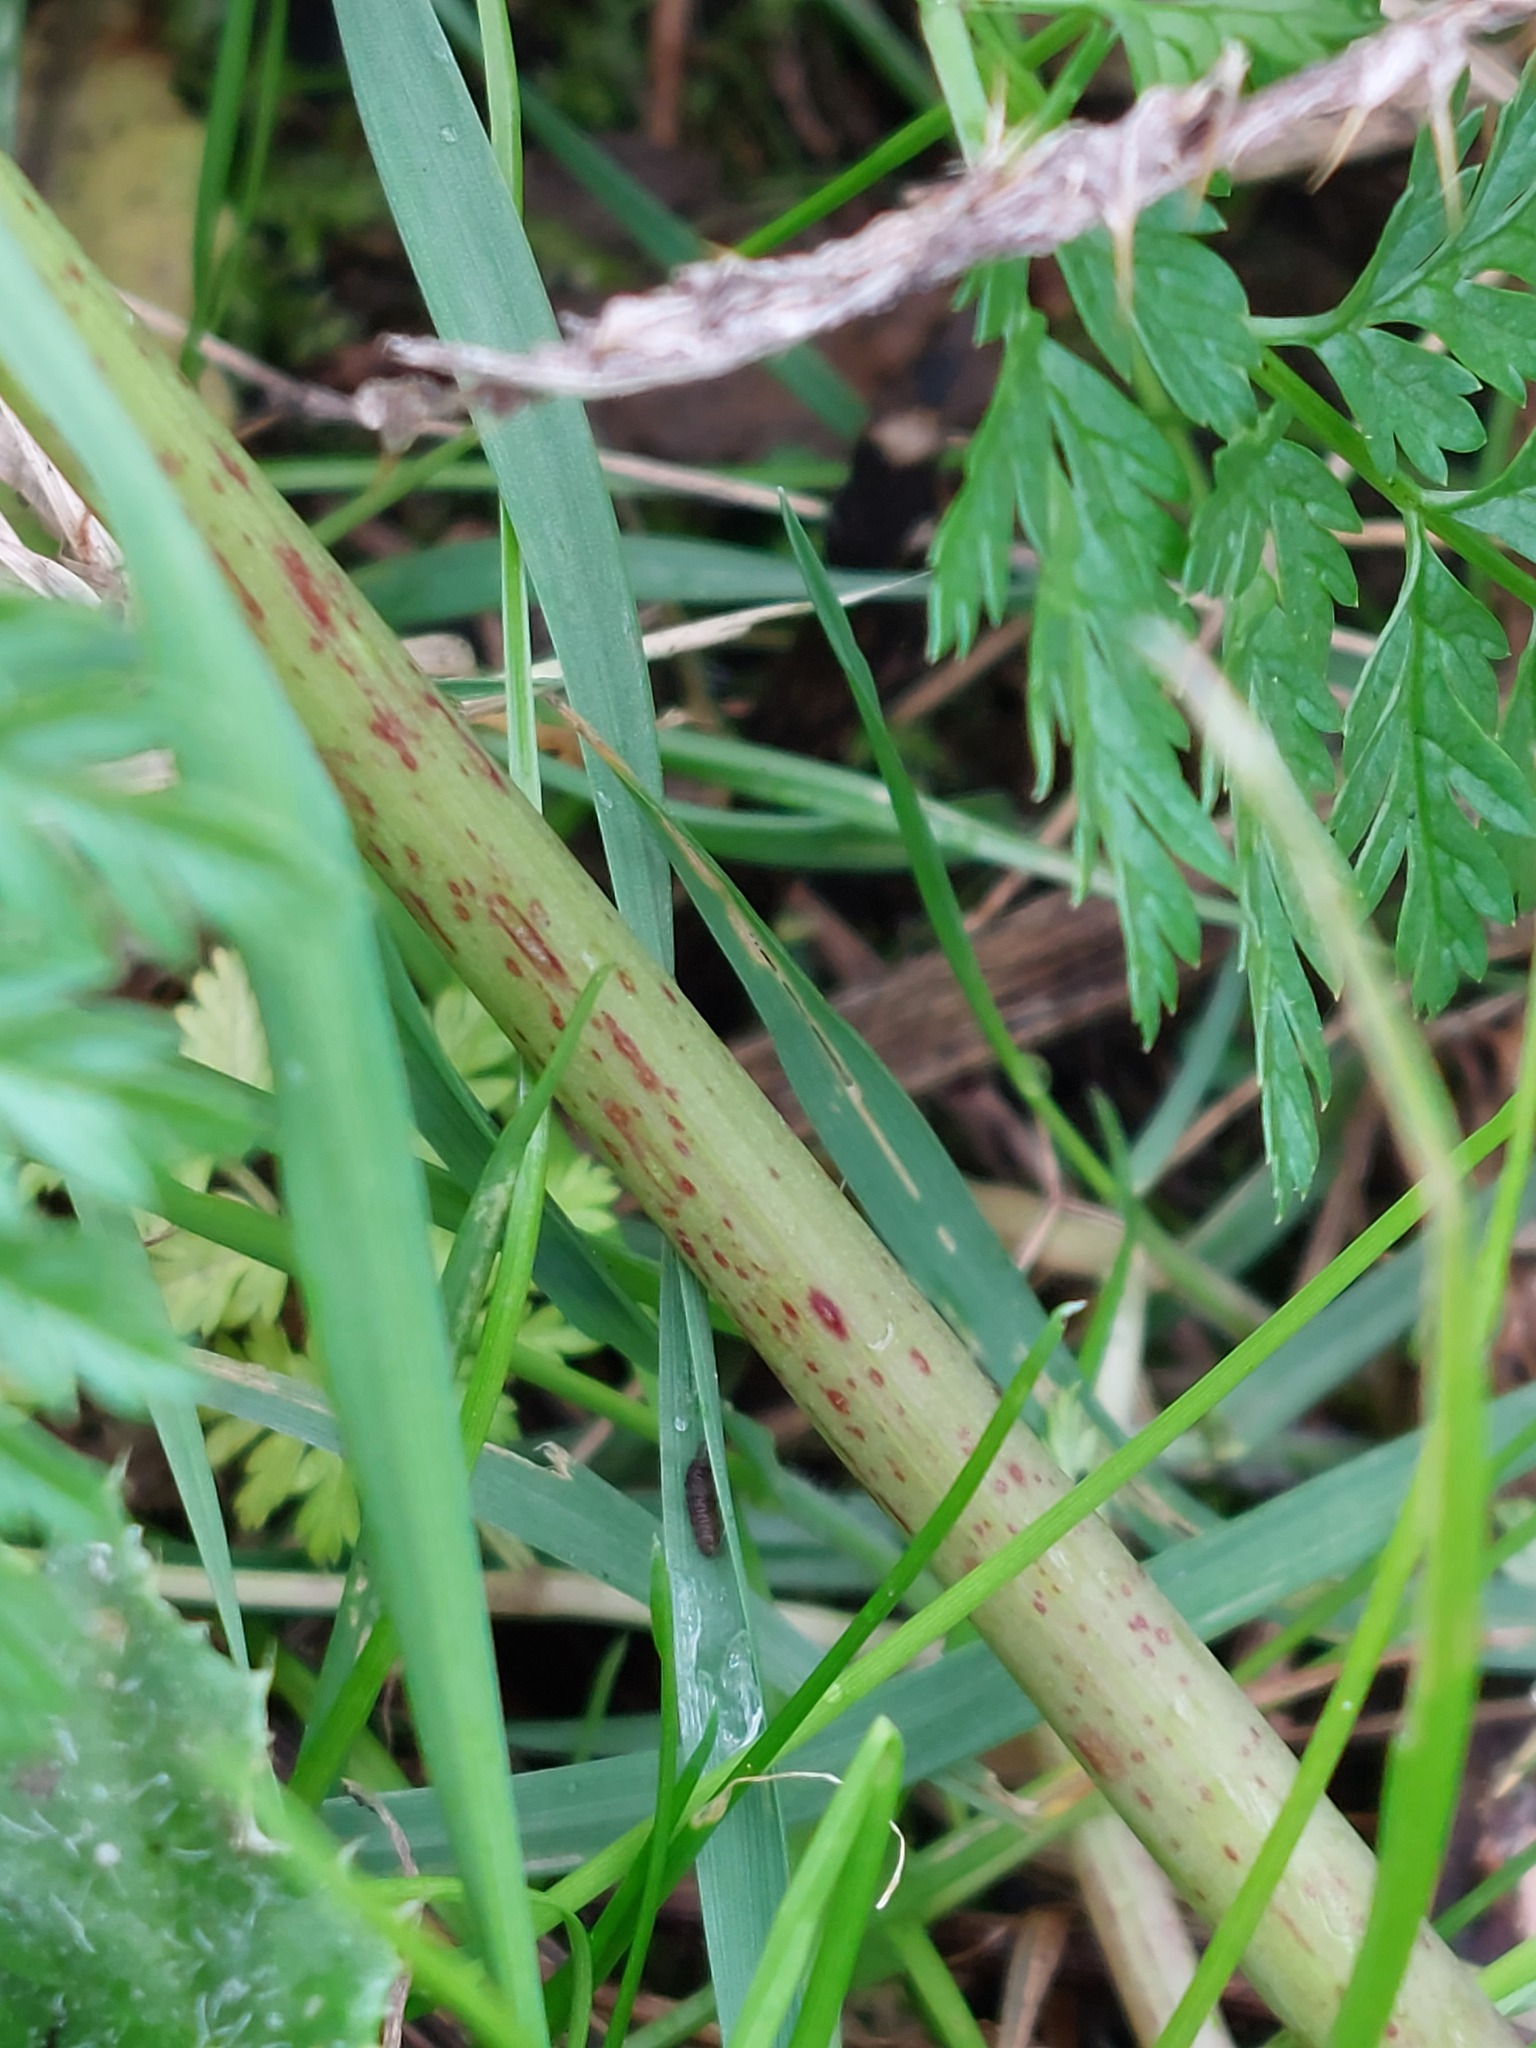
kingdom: Plantae
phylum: Tracheophyta
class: Magnoliopsida
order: Apiales
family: Apiaceae
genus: Conium
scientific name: Conium maculatum
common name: Hemlock
